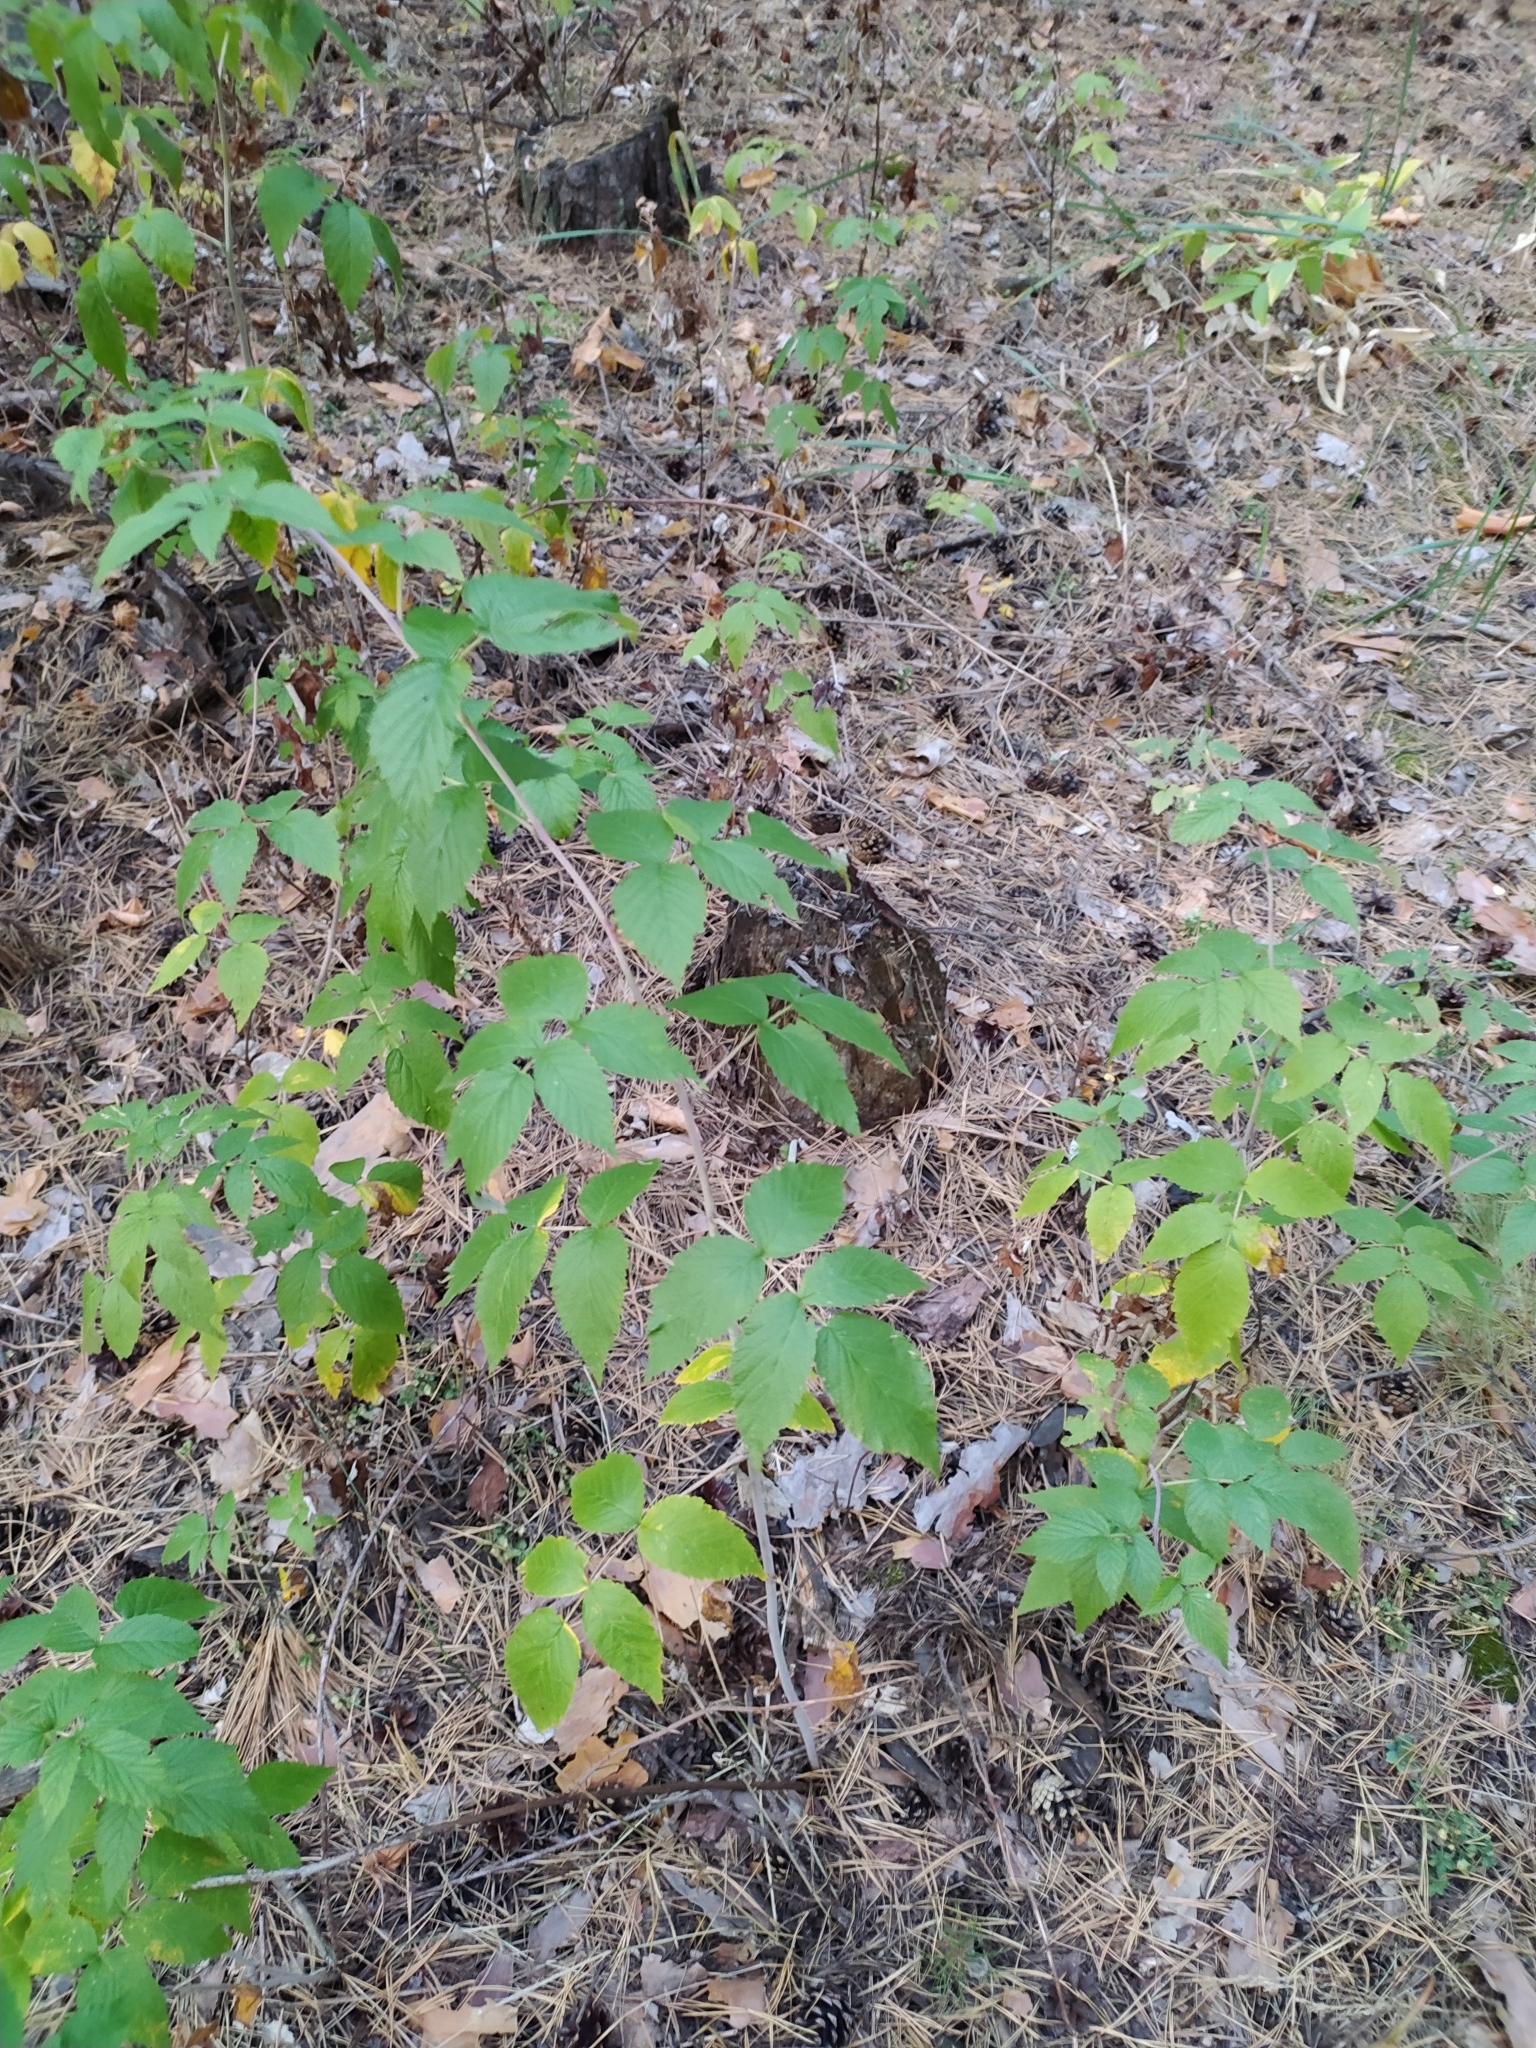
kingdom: Plantae
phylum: Tracheophyta
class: Magnoliopsida
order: Rosales
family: Rosaceae
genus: Rubus
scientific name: Rubus idaeus
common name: Raspberry
